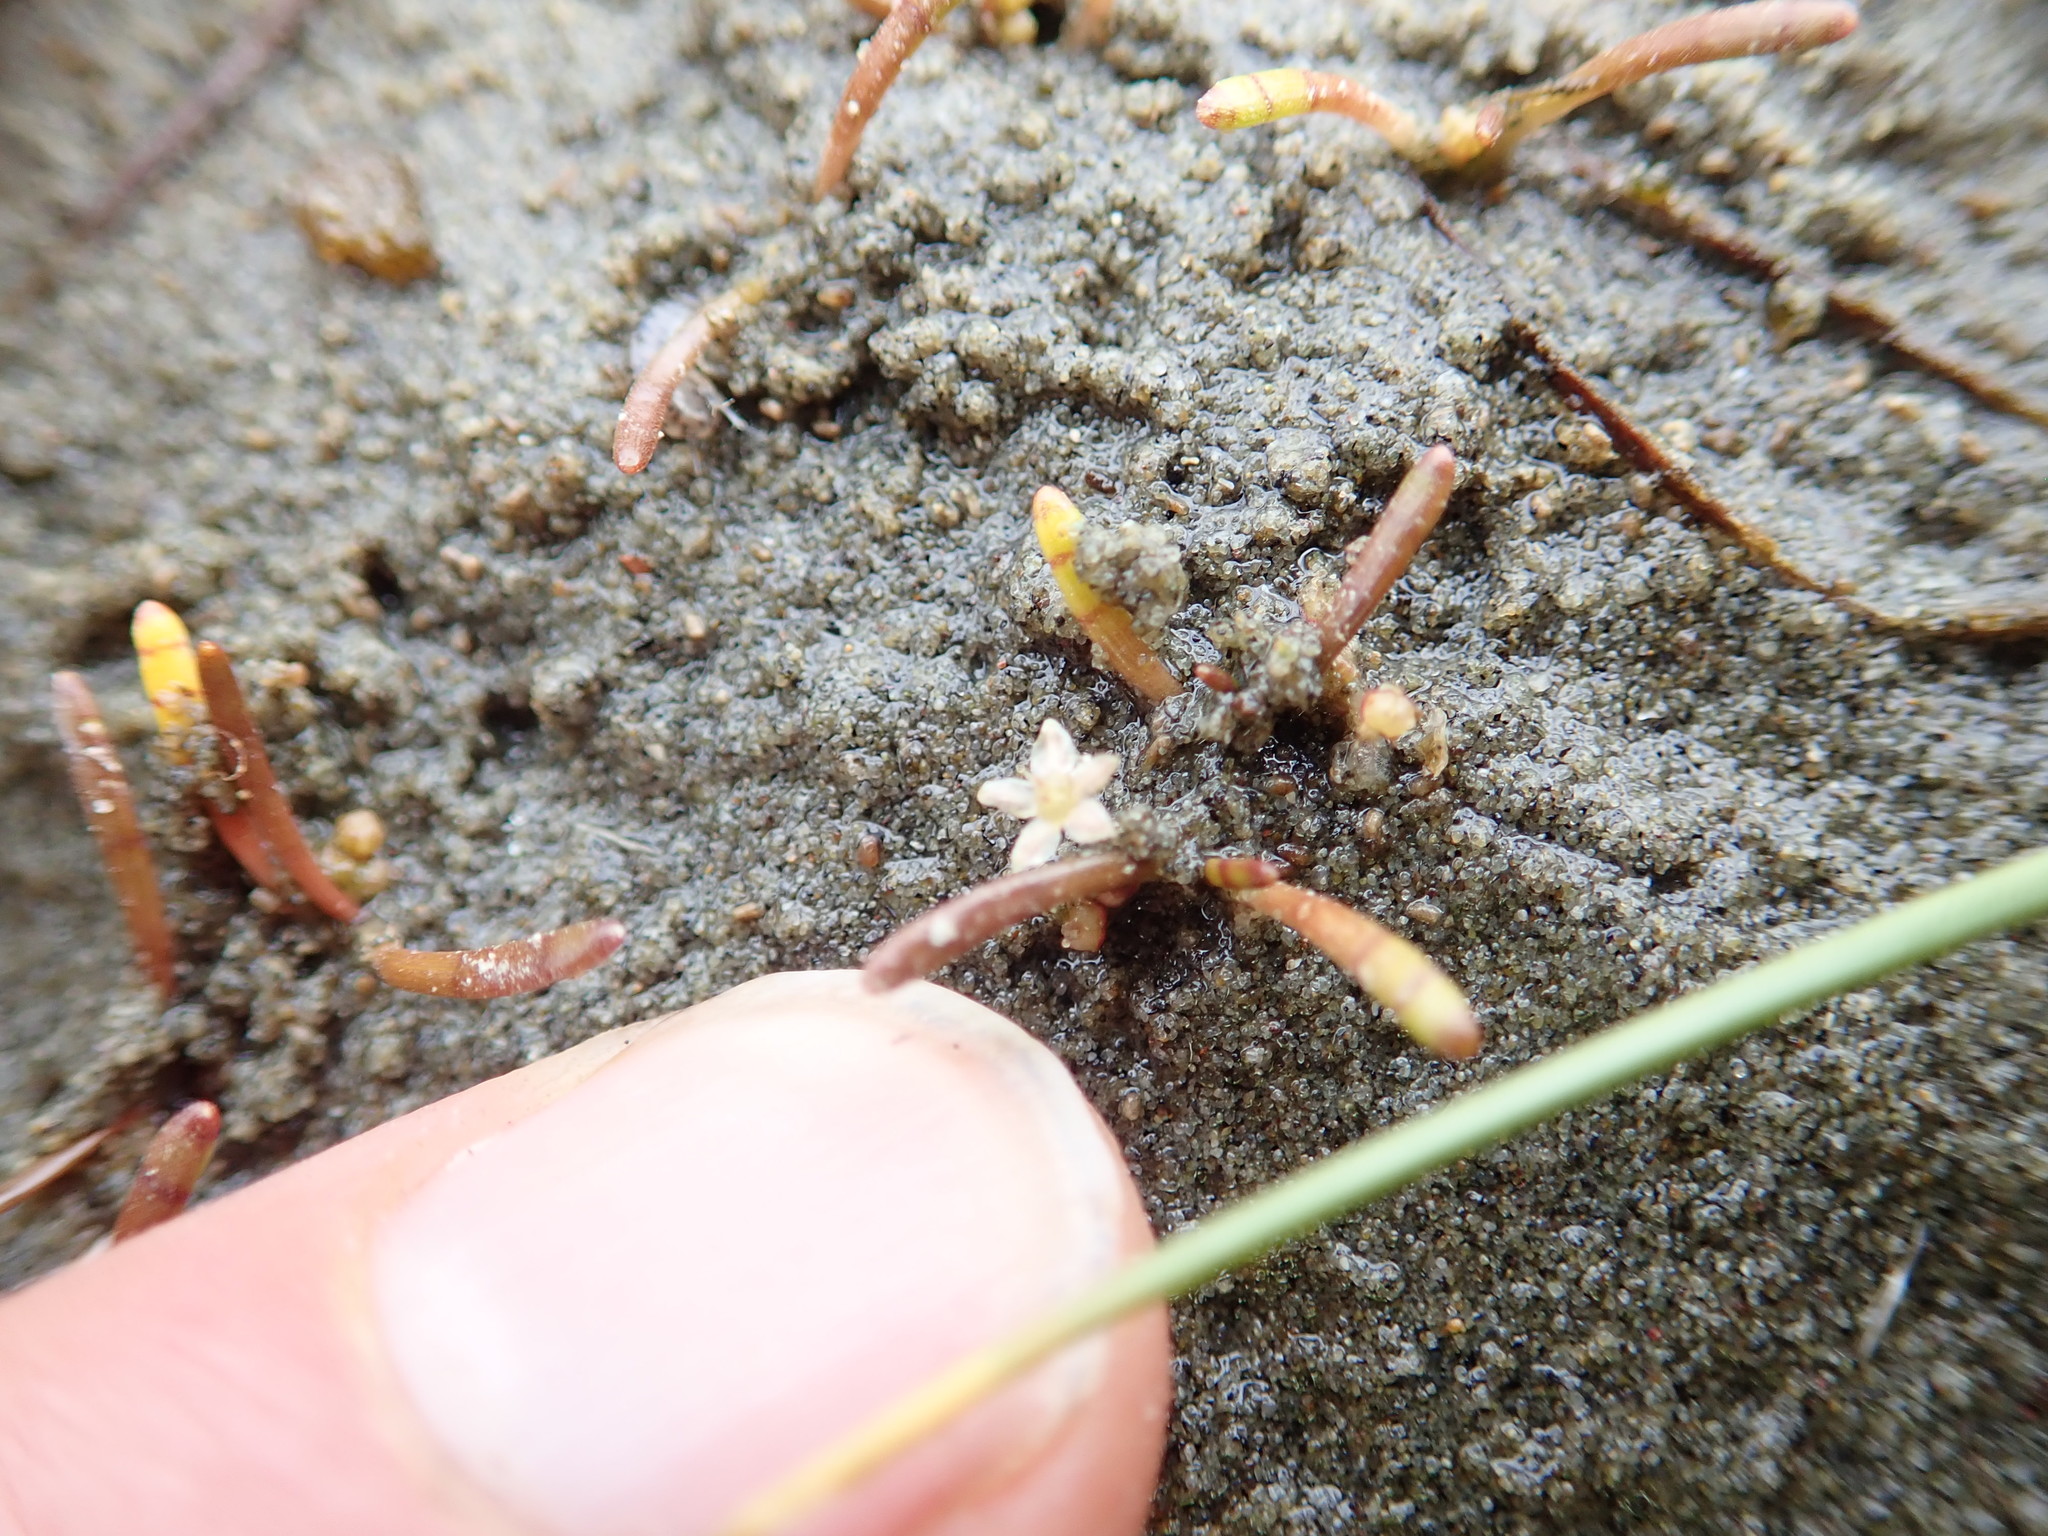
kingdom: Plantae
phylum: Tracheophyta
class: Magnoliopsida
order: Apiales
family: Apiaceae
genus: Lilaeopsis
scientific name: Lilaeopsis novae-zelandiae
